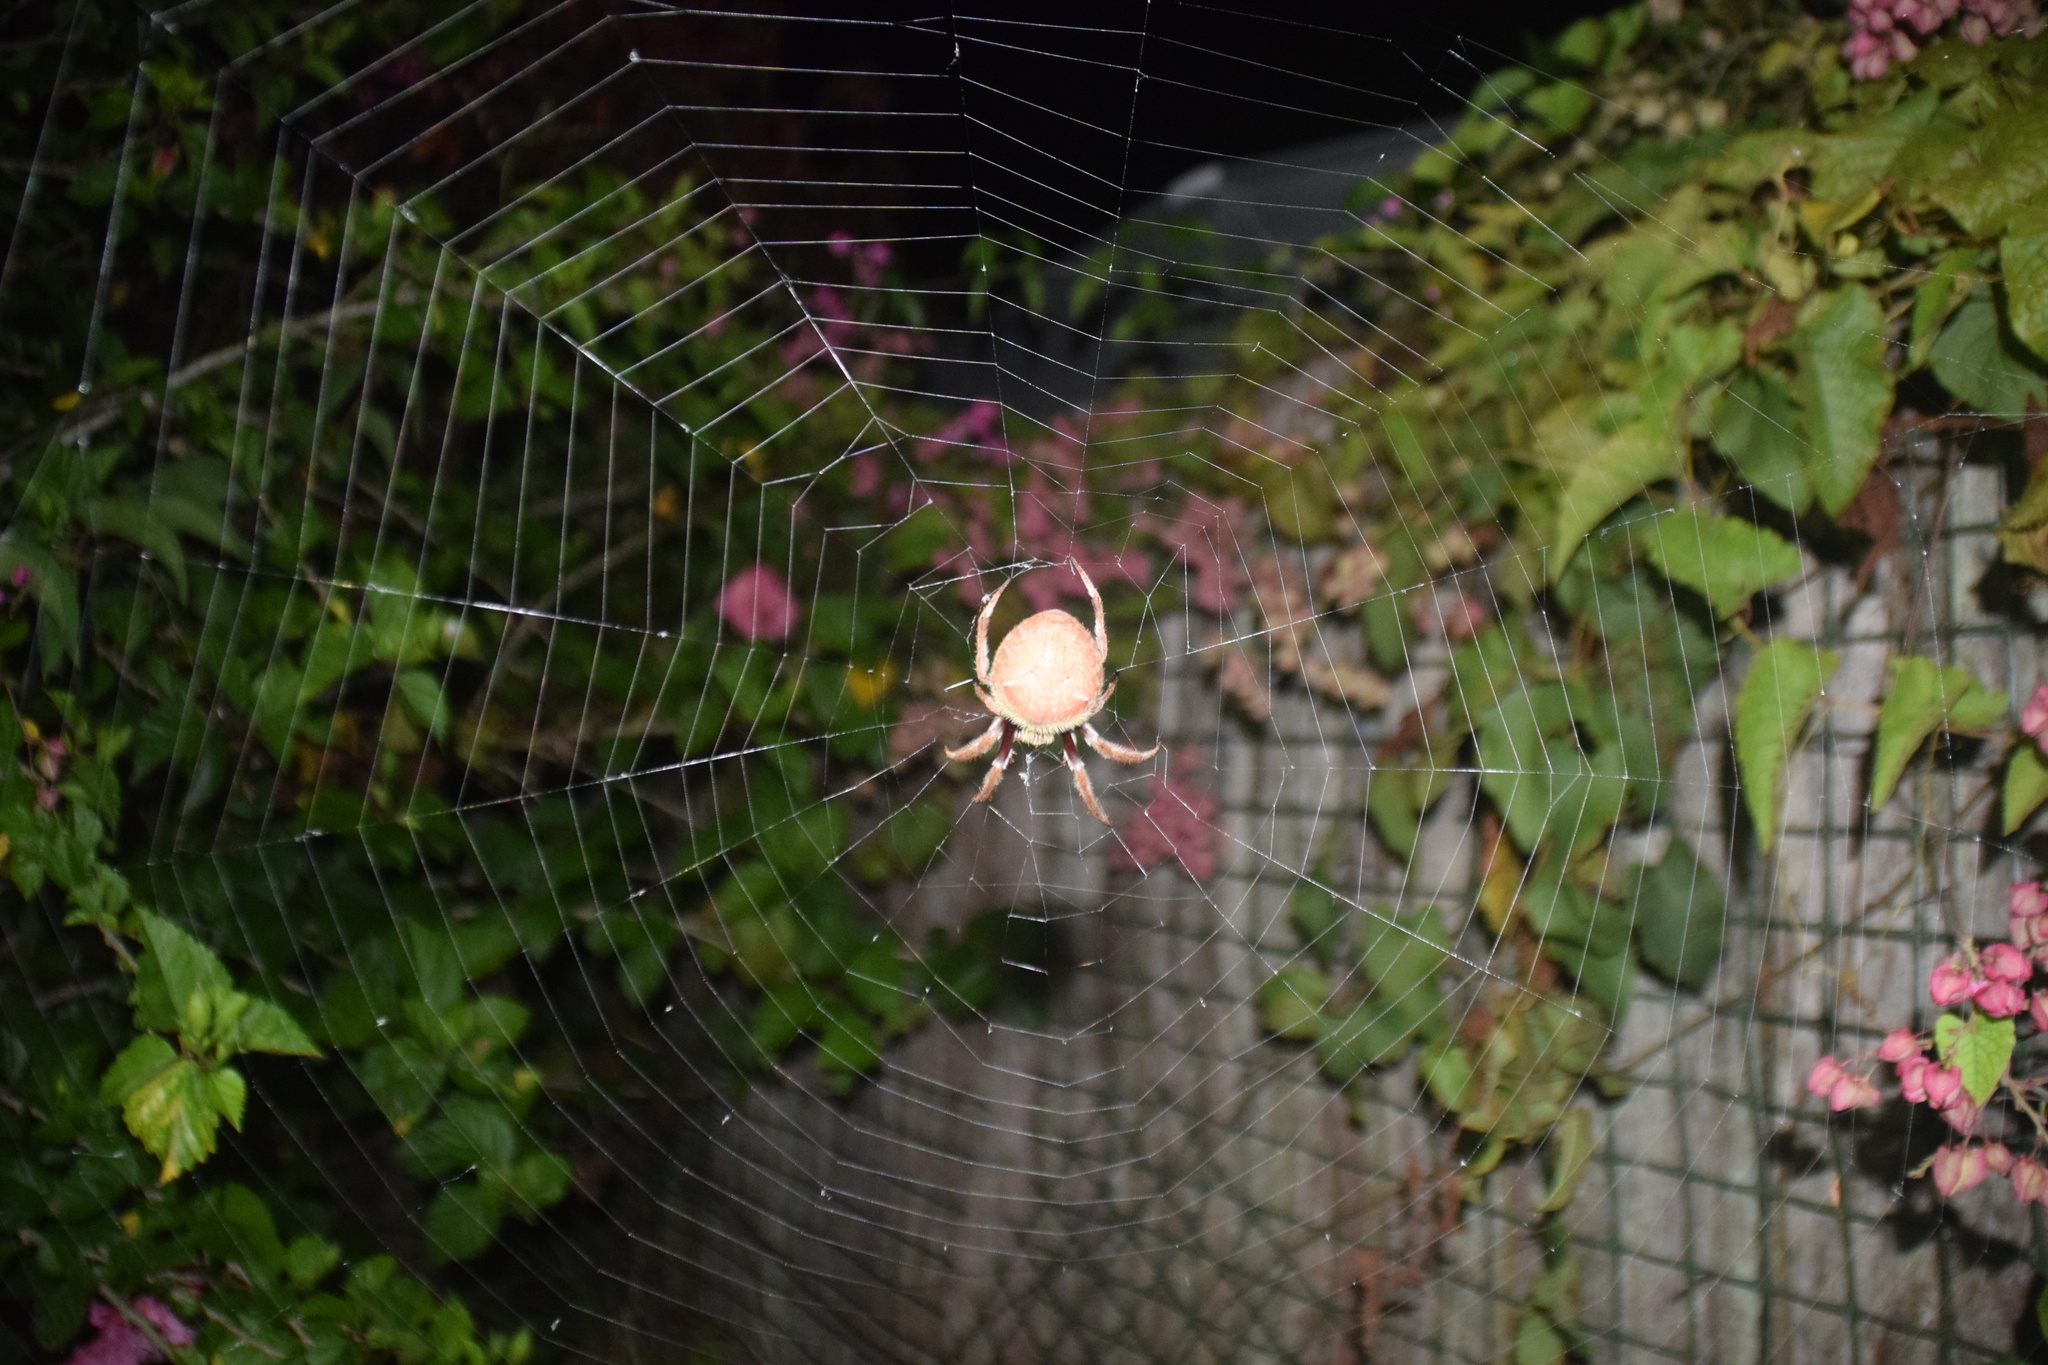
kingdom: Animalia
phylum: Arthropoda
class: Arachnida
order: Araneae
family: Araneidae
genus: Hortophora
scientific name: Hortophora transmarina
